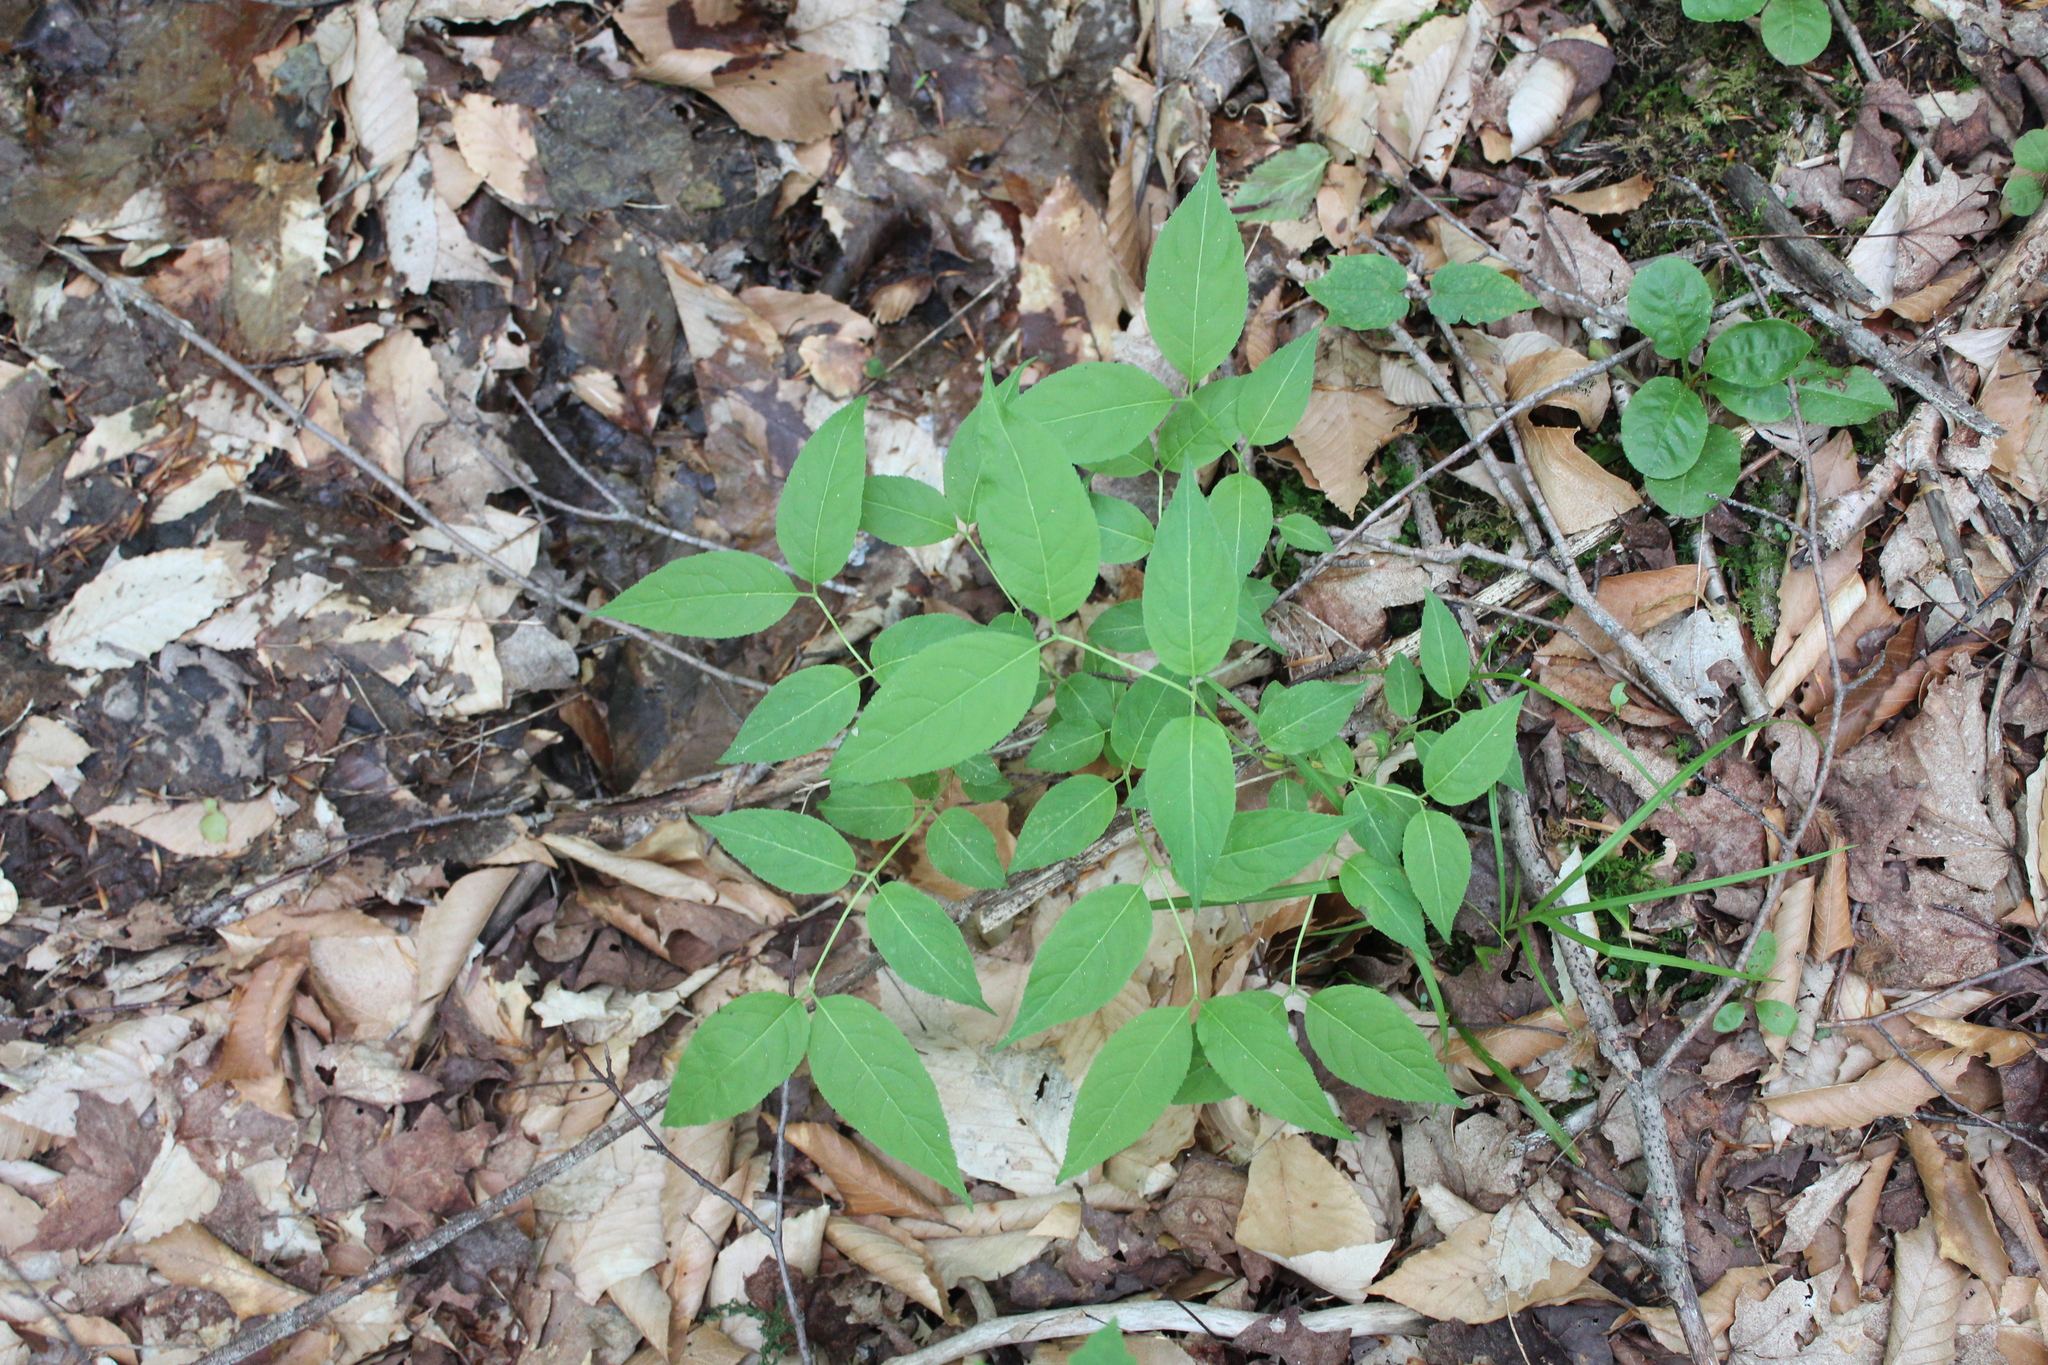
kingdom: Plantae
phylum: Tracheophyta
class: Magnoliopsida
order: Dipsacales
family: Caprifoliaceae
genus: Diervilla
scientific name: Diervilla lonicera
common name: Bush-honeysuckle
